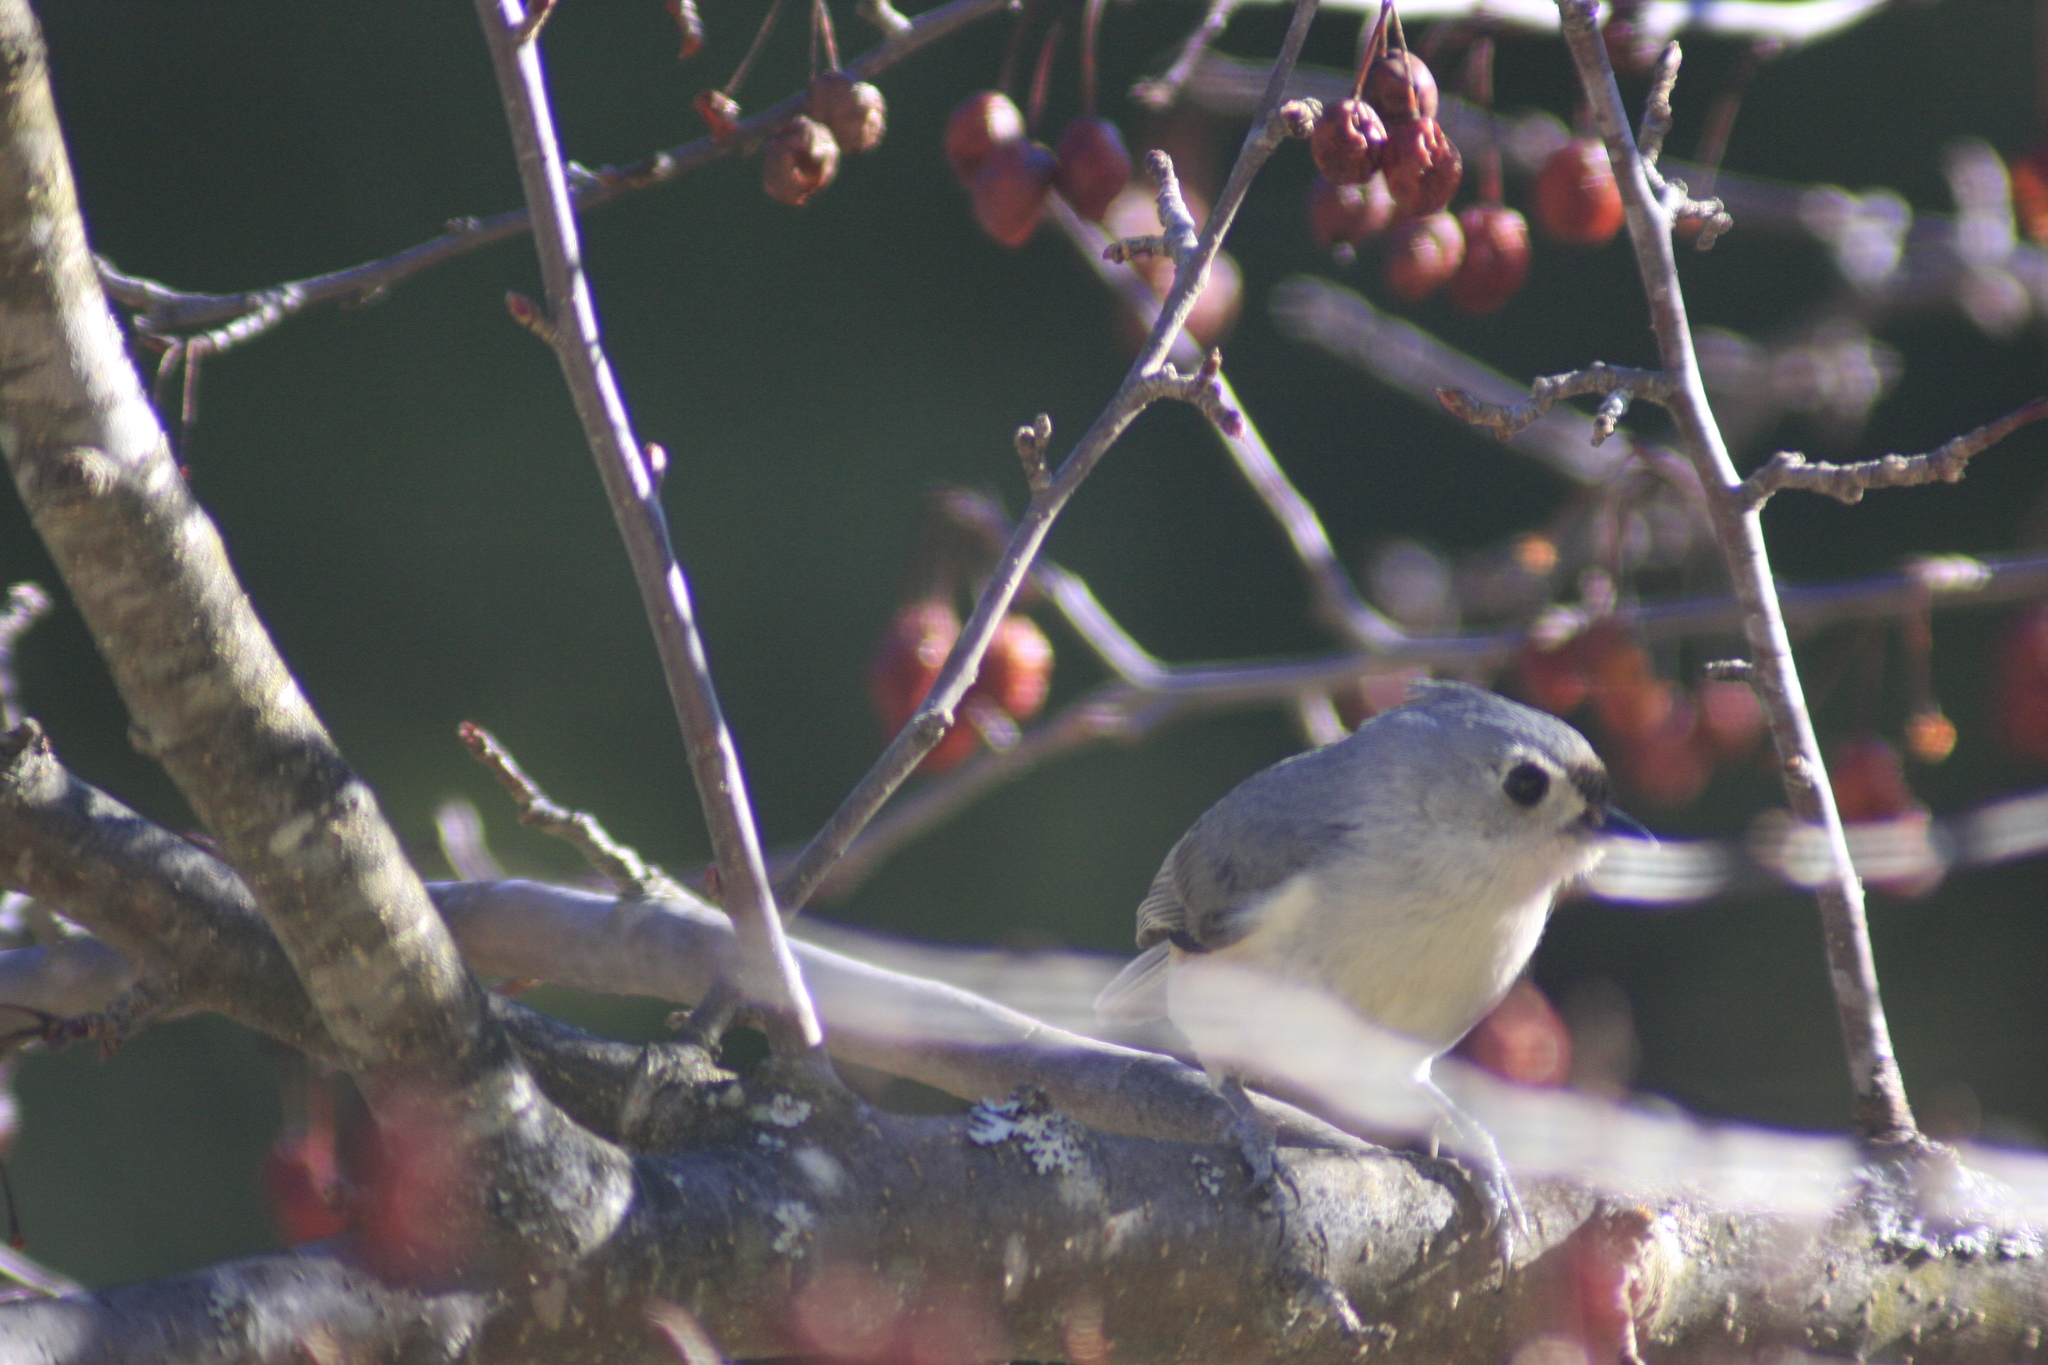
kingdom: Animalia
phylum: Chordata
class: Aves
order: Passeriformes
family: Paridae
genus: Baeolophus
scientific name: Baeolophus bicolor
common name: Tufted titmouse
